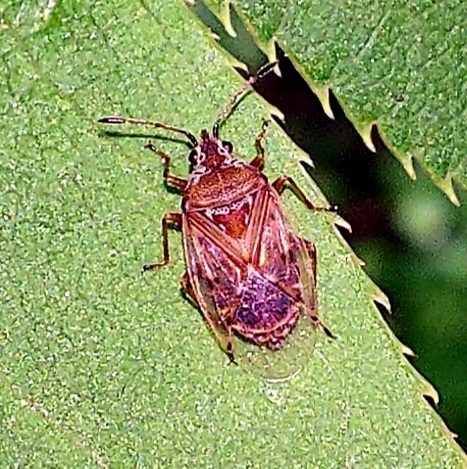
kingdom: Animalia
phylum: Arthropoda
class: Insecta
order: Hemiptera
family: Lygaeidae
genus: Kleidocerys
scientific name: Kleidocerys resedae
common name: Birch catkin bug
